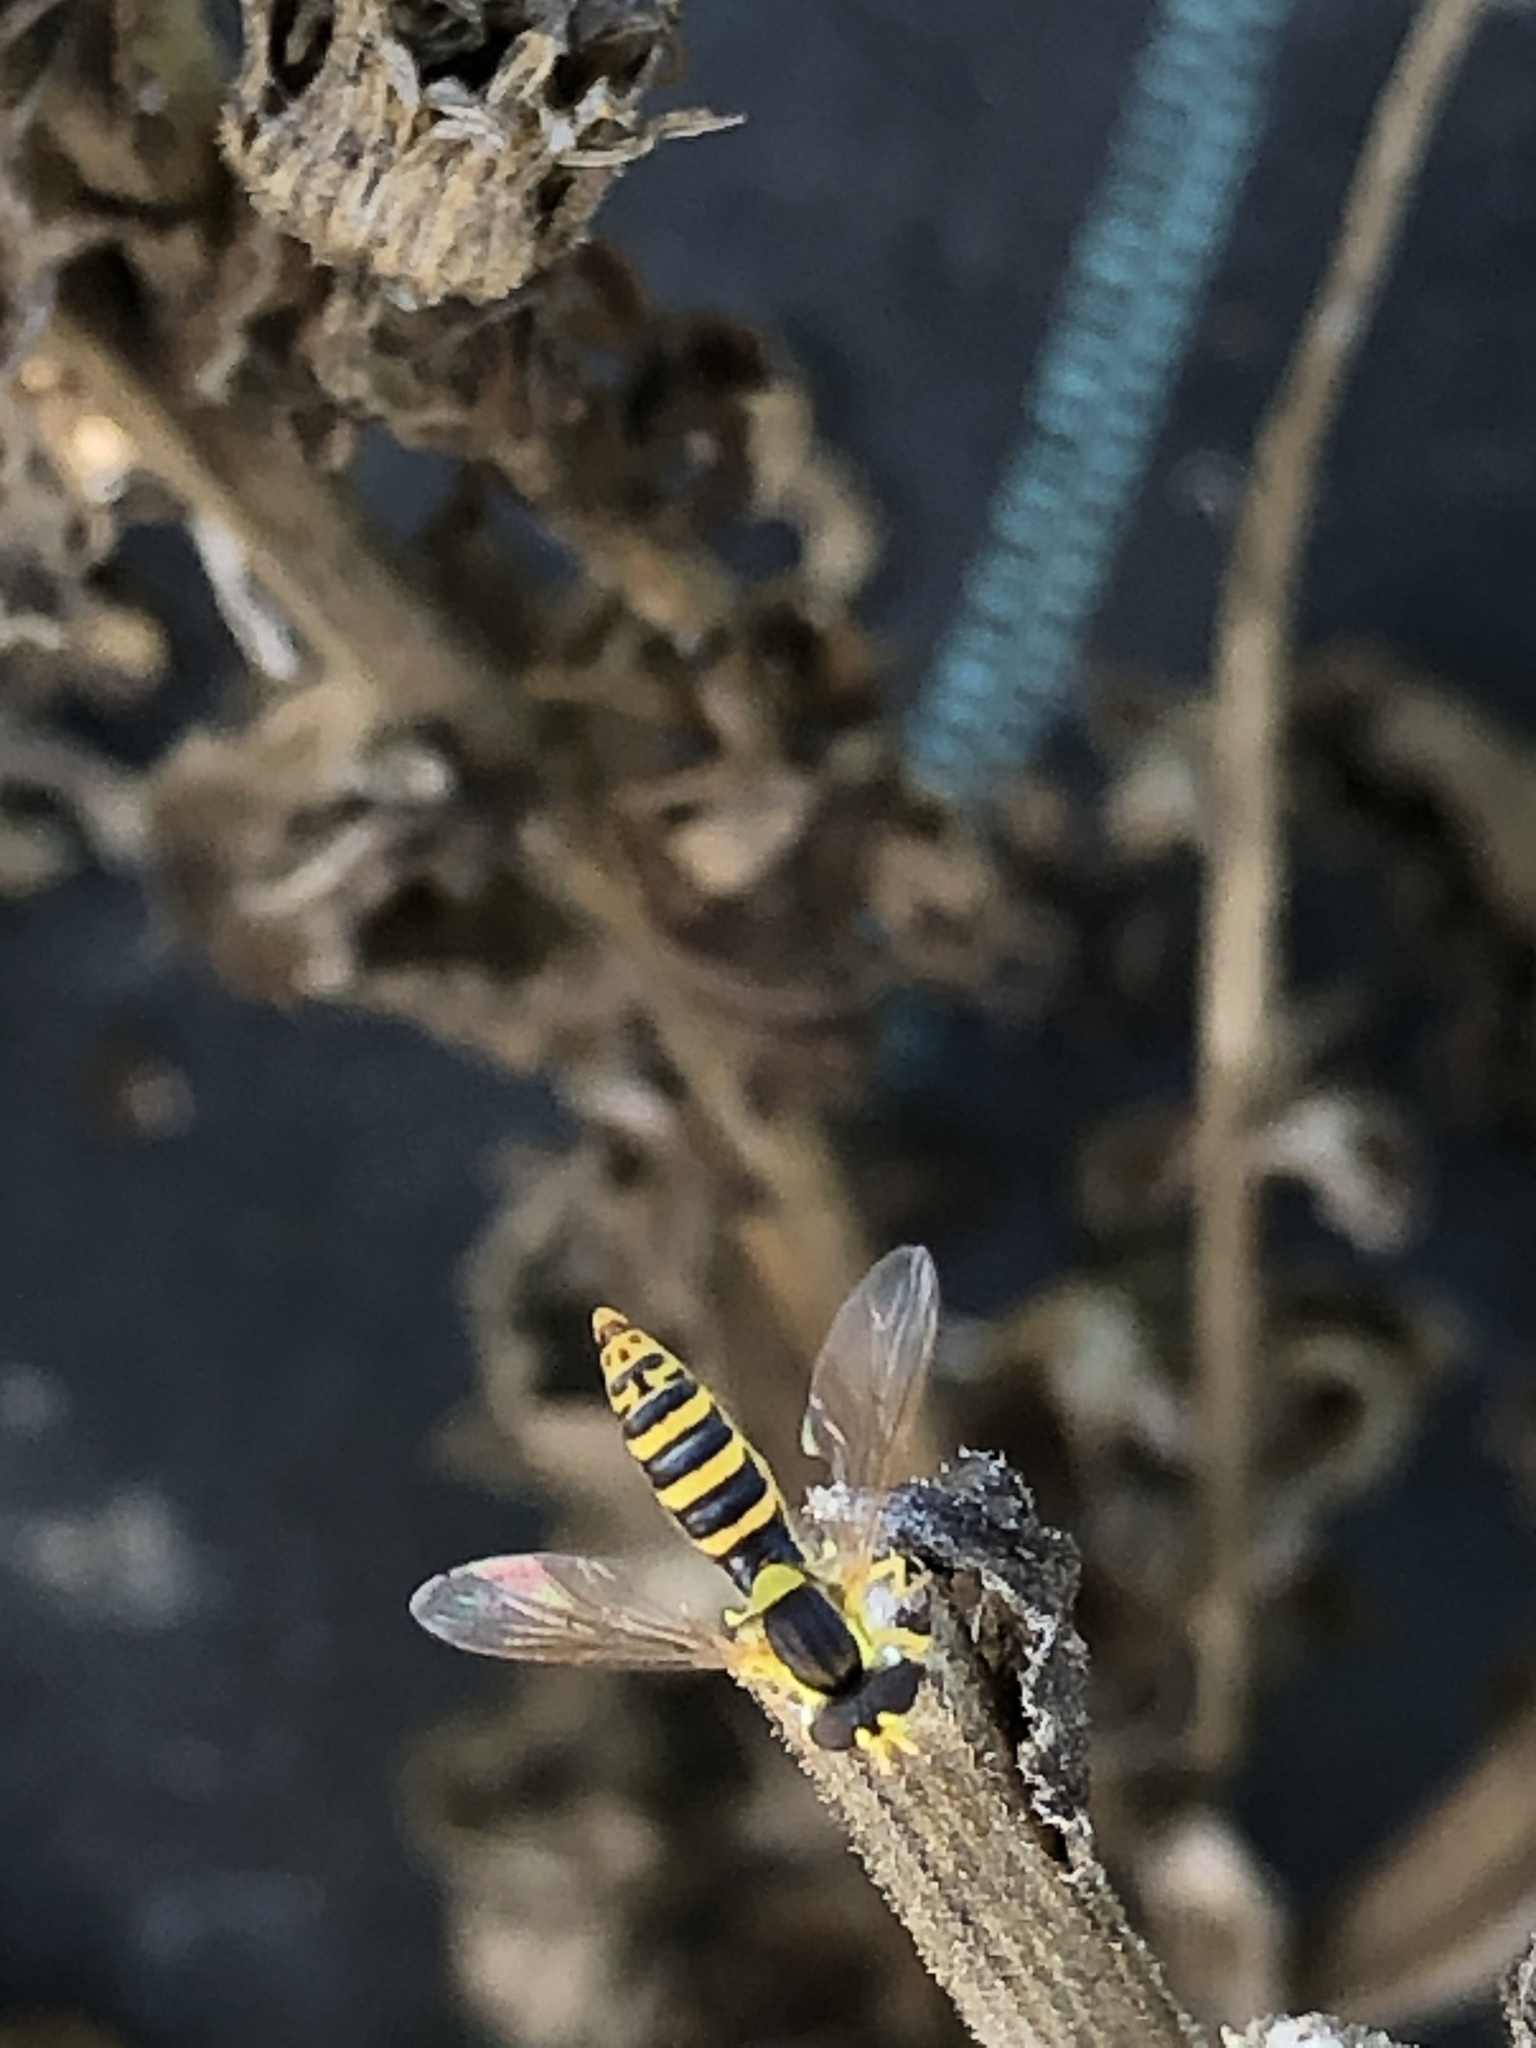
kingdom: Animalia
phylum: Arthropoda
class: Insecta
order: Diptera
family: Syrphidae
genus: Sphaerophoria
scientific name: Sphaerophoria scripta
